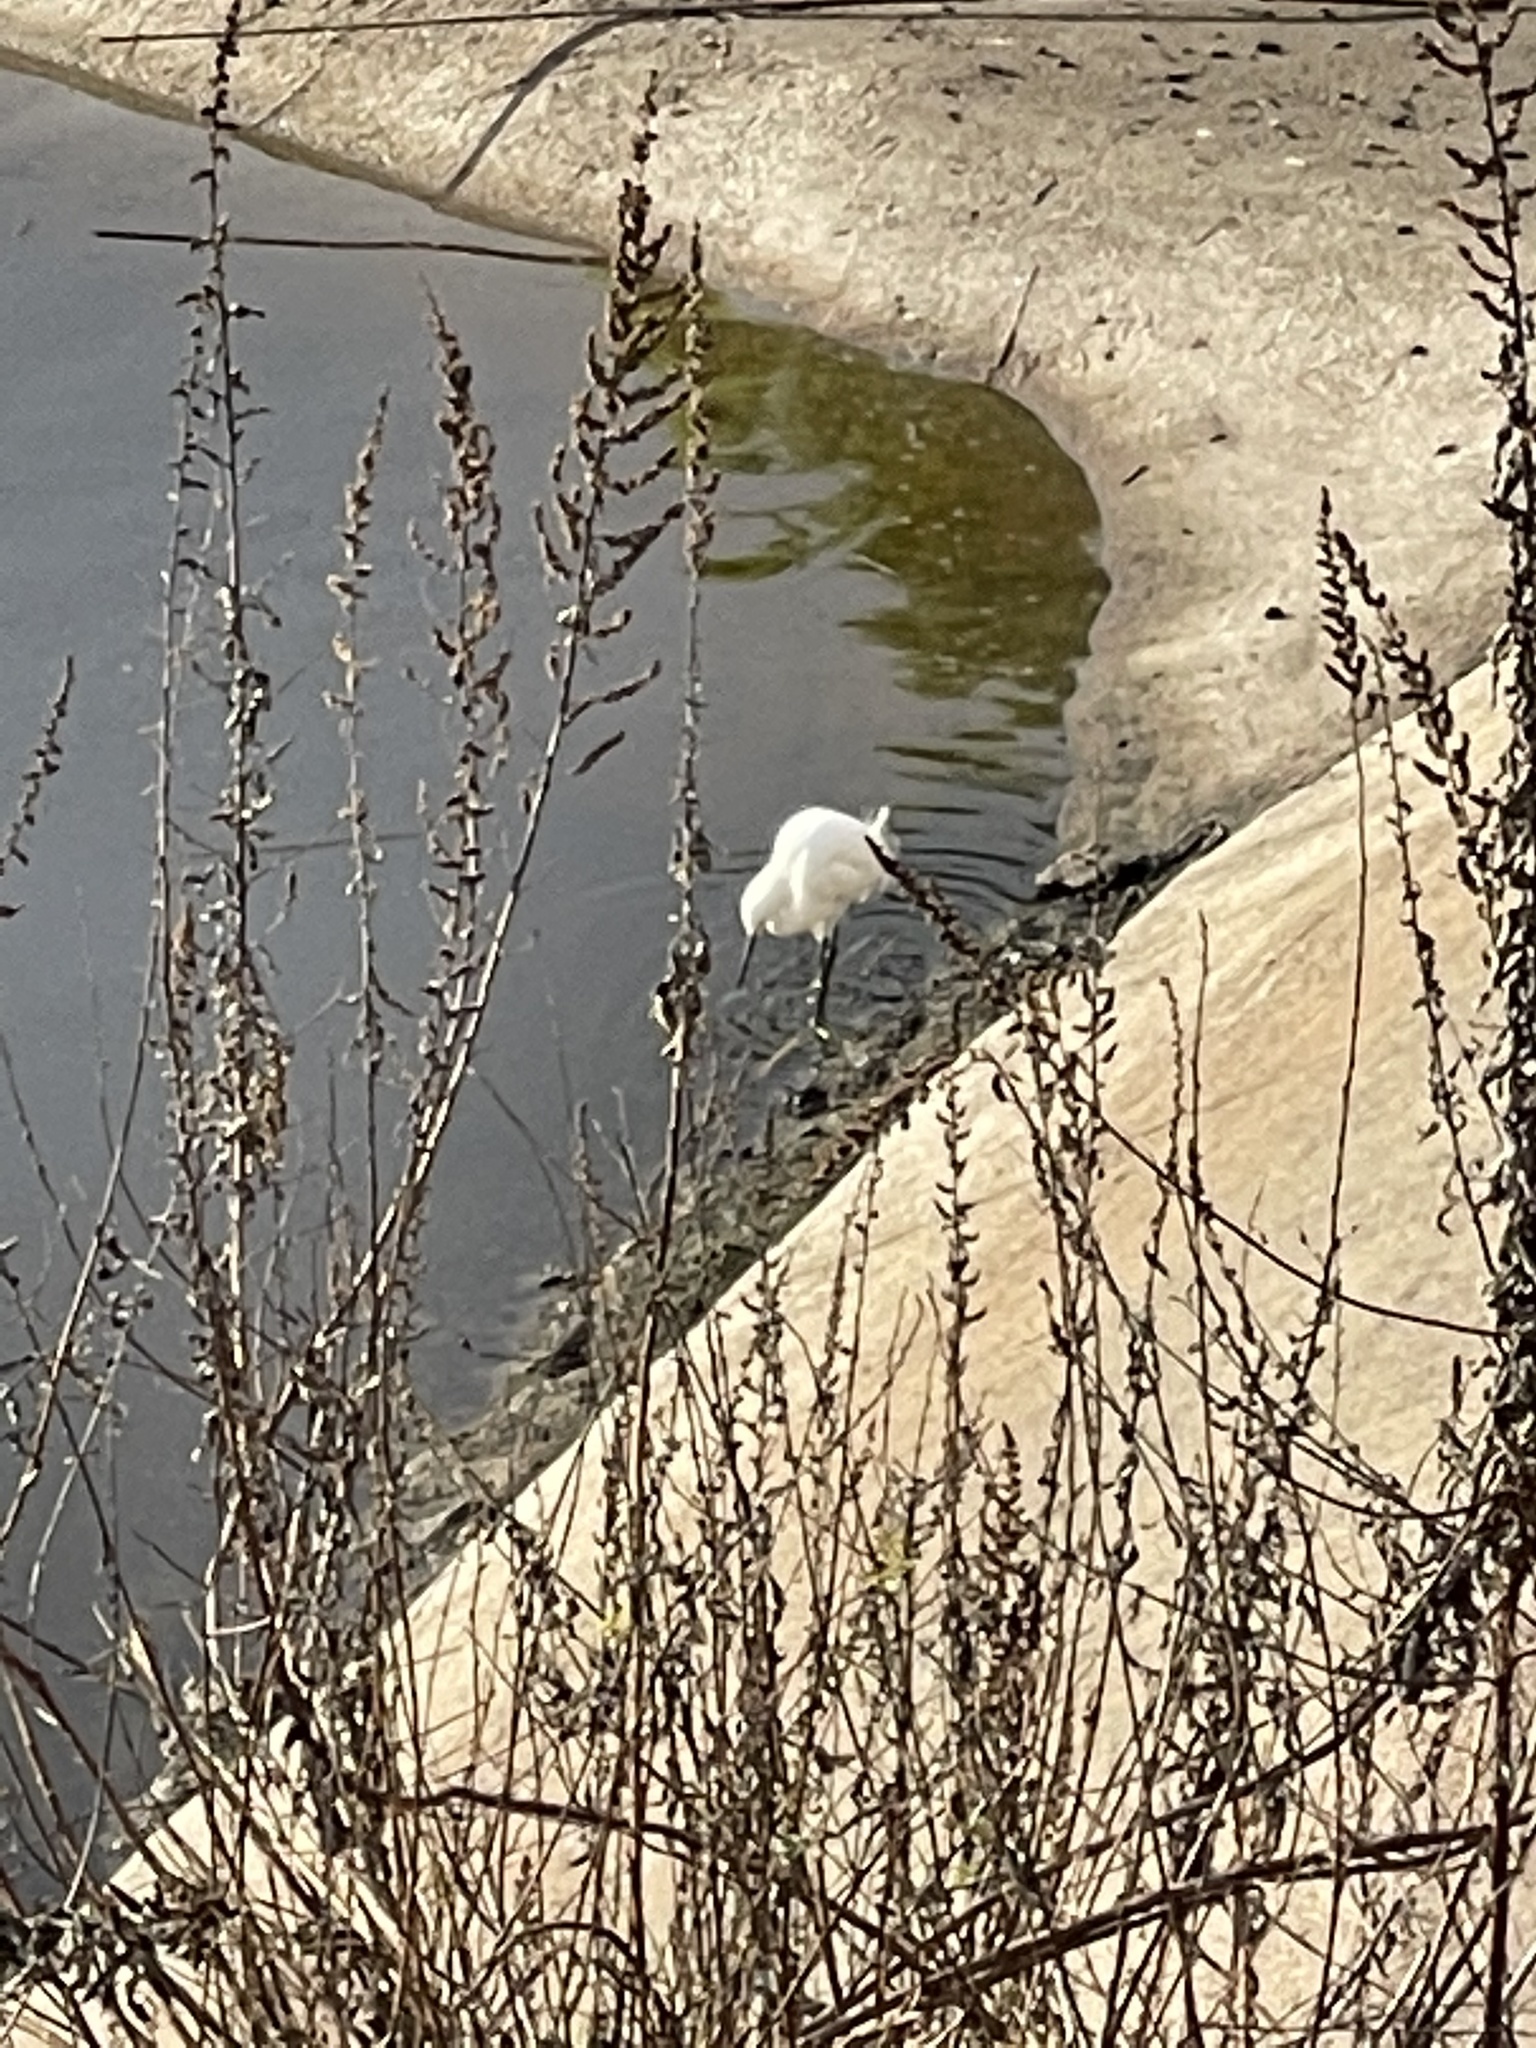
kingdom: Animalia
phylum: Chordata
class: Aves
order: Pelecaniformes
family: Ardeidae
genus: Egretta
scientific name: Egretta thula
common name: Snowy egret
